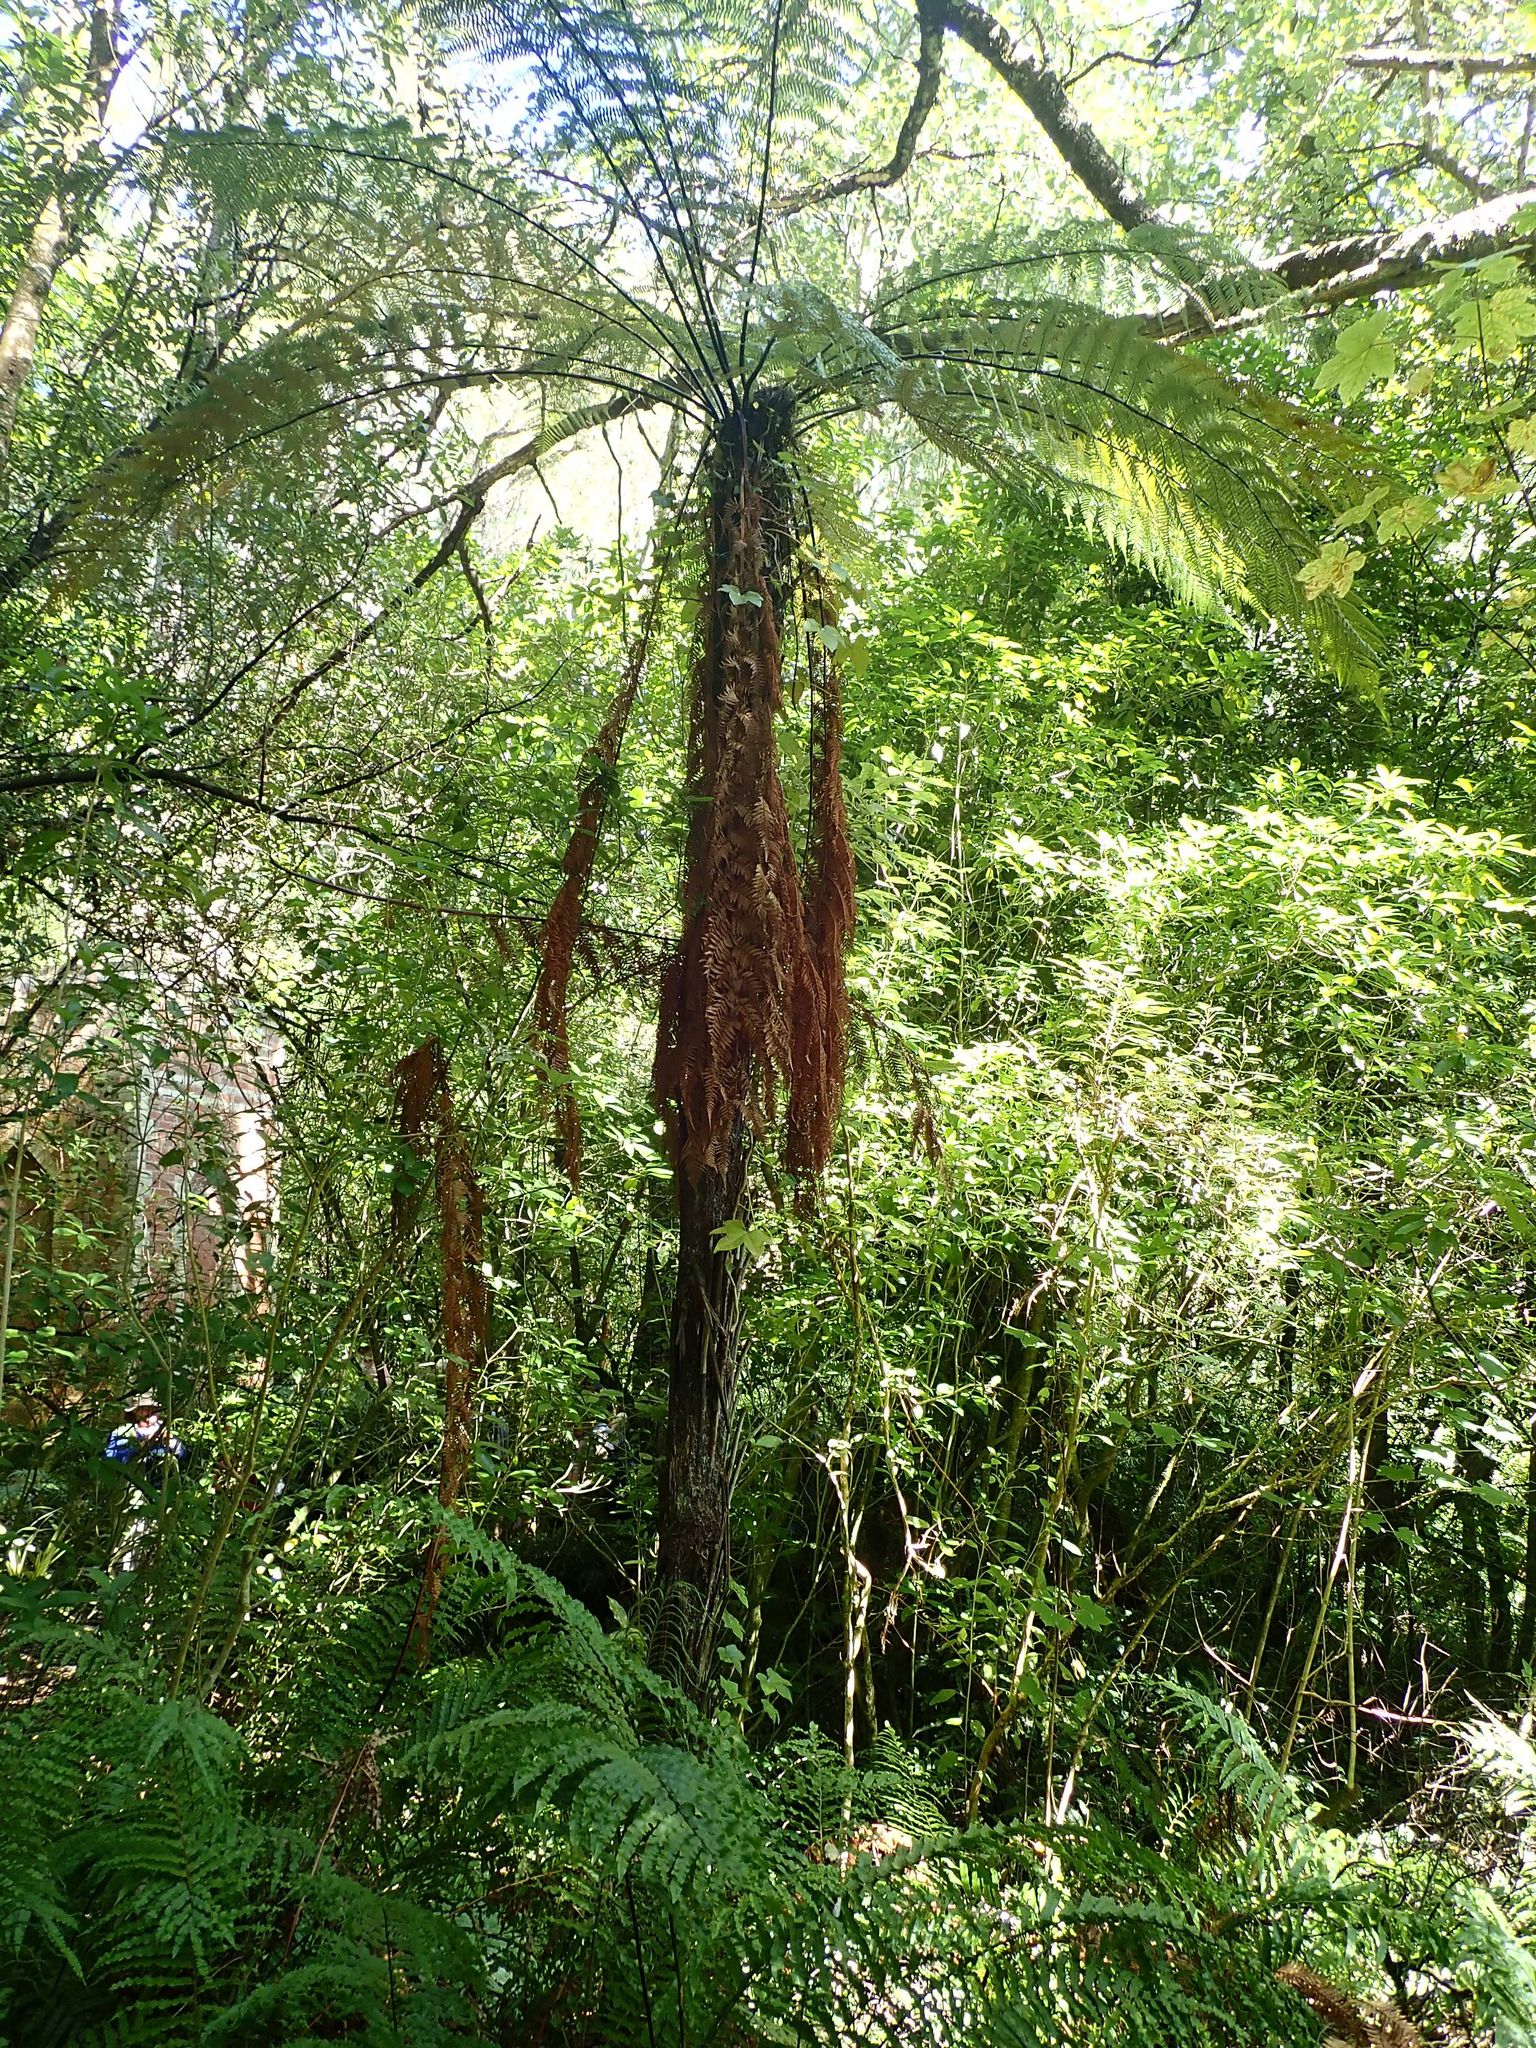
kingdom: Plantae
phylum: Tracheophyta
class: Polypodiopsida
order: Cyatheales
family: Dicksoniaceae
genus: Dicksonia
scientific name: Dicksonia squarrosa
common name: Hard treefern
